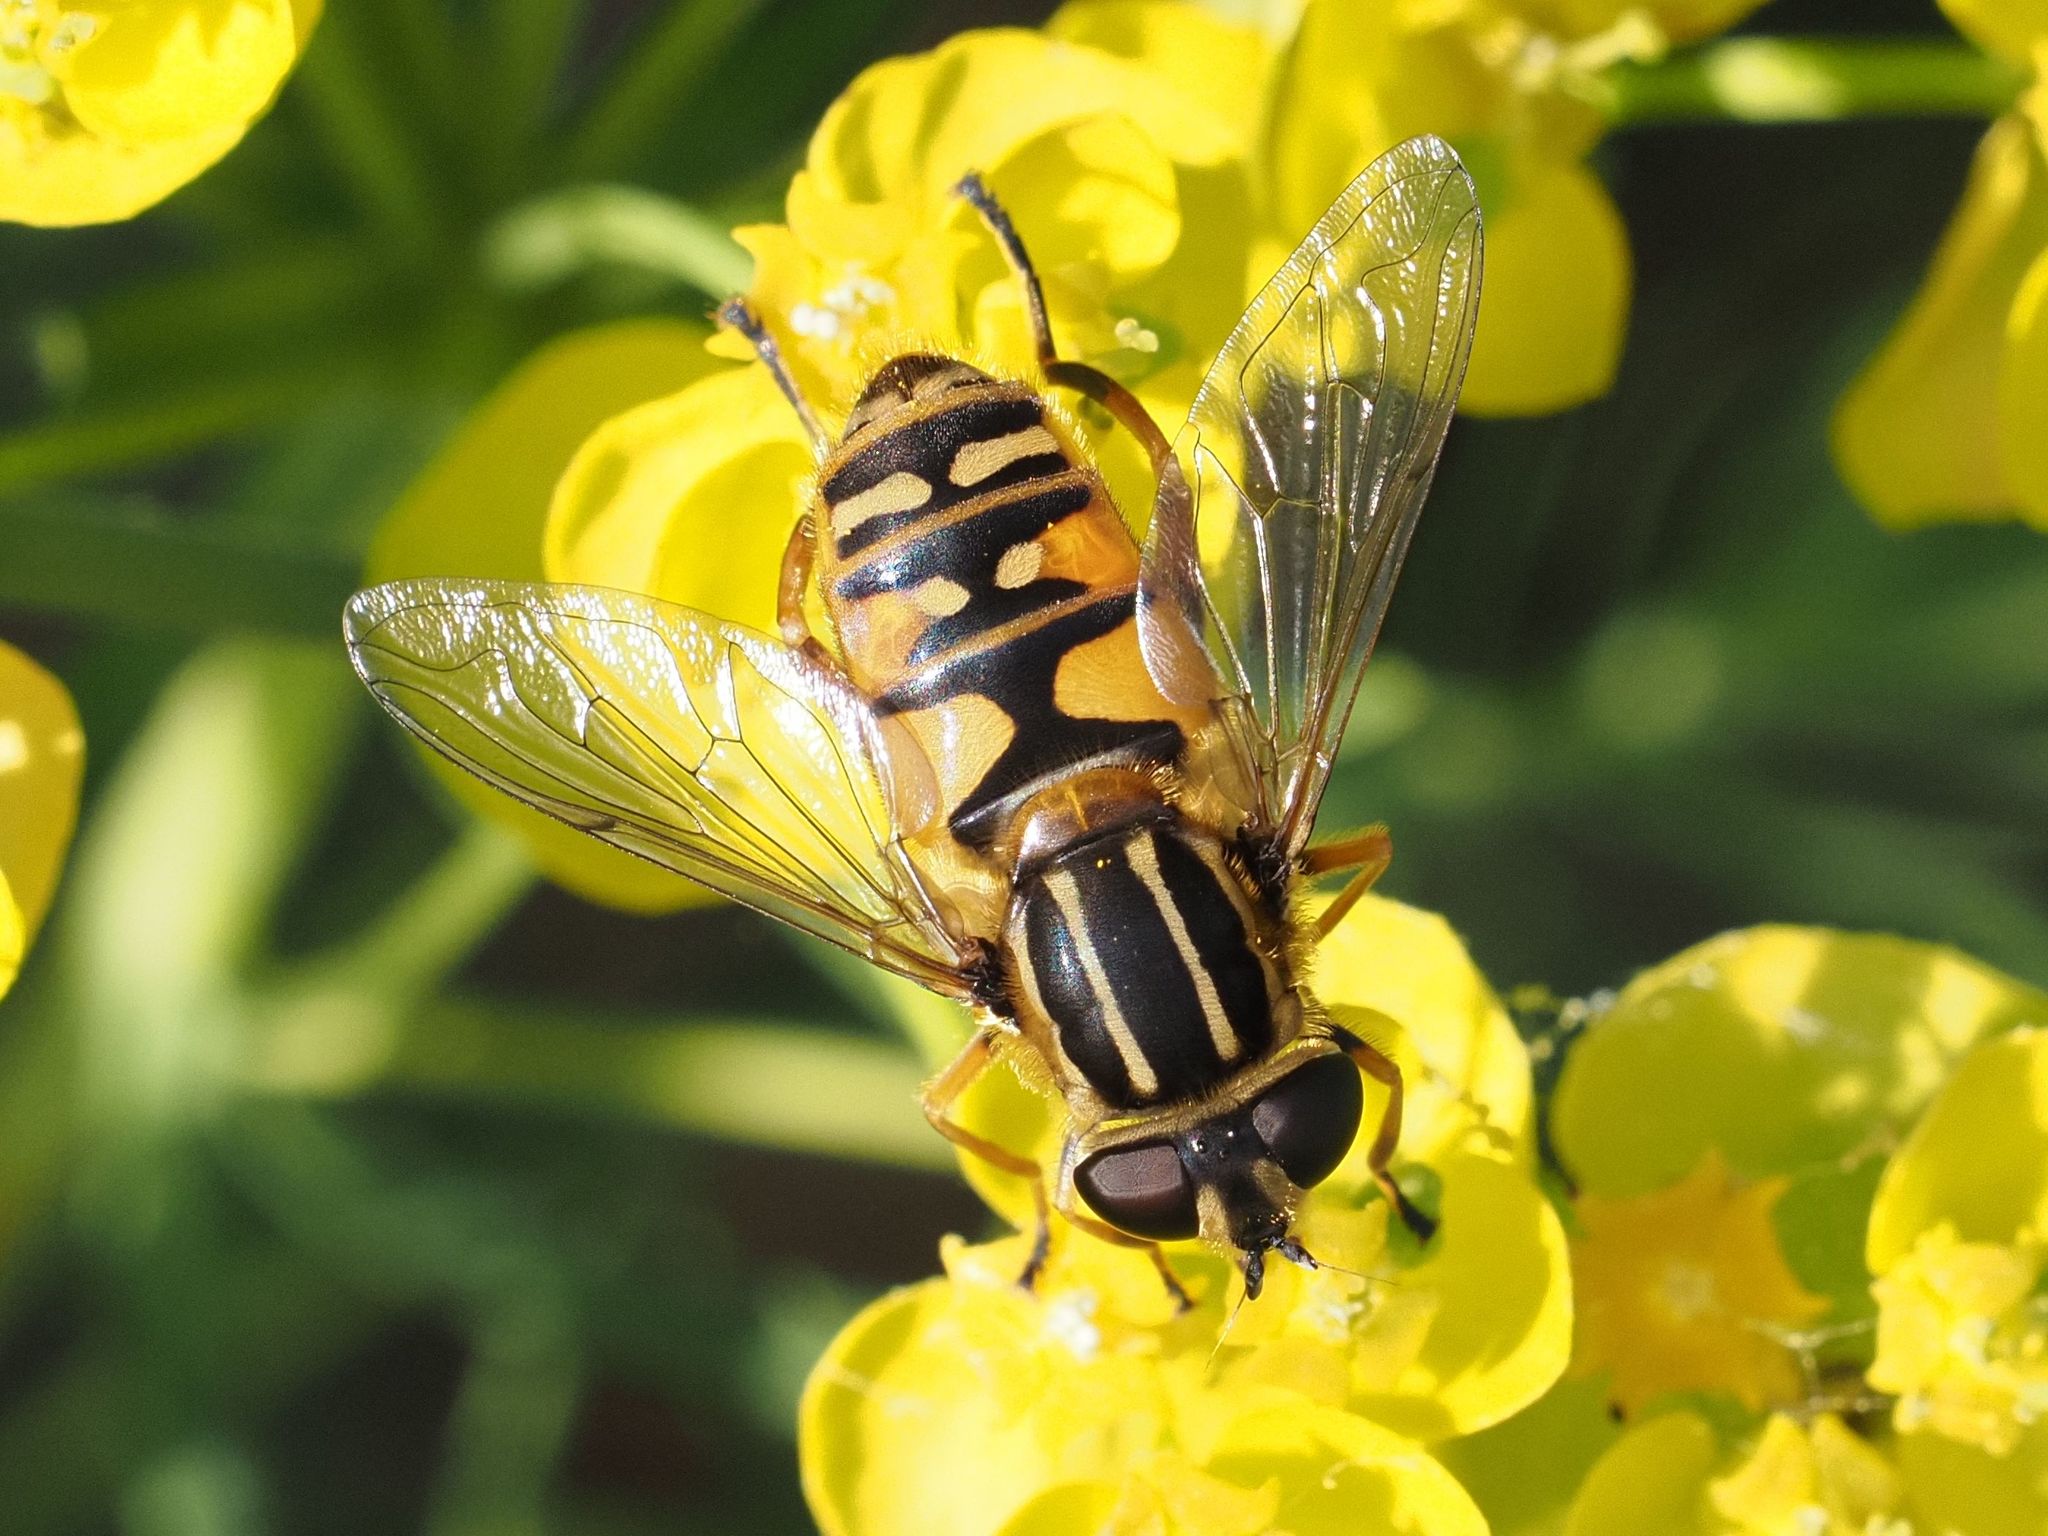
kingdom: Animalia
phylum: Arthropoda
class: Insecta
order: Diptera
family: Syrphidae
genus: Helophilus
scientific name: Helophilus pendulus
